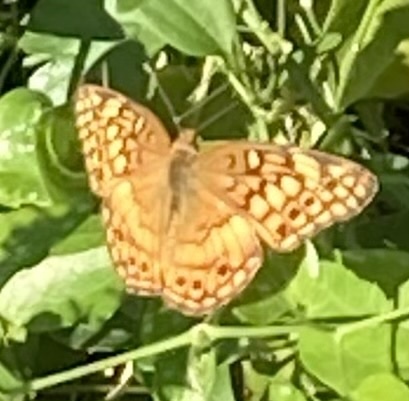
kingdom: Animalia
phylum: Arthropoda
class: Insecta
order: Lepidoptera
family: Nymphalidae
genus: Euptoieta
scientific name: Euptoieta claudia
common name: Variegated fritillary
